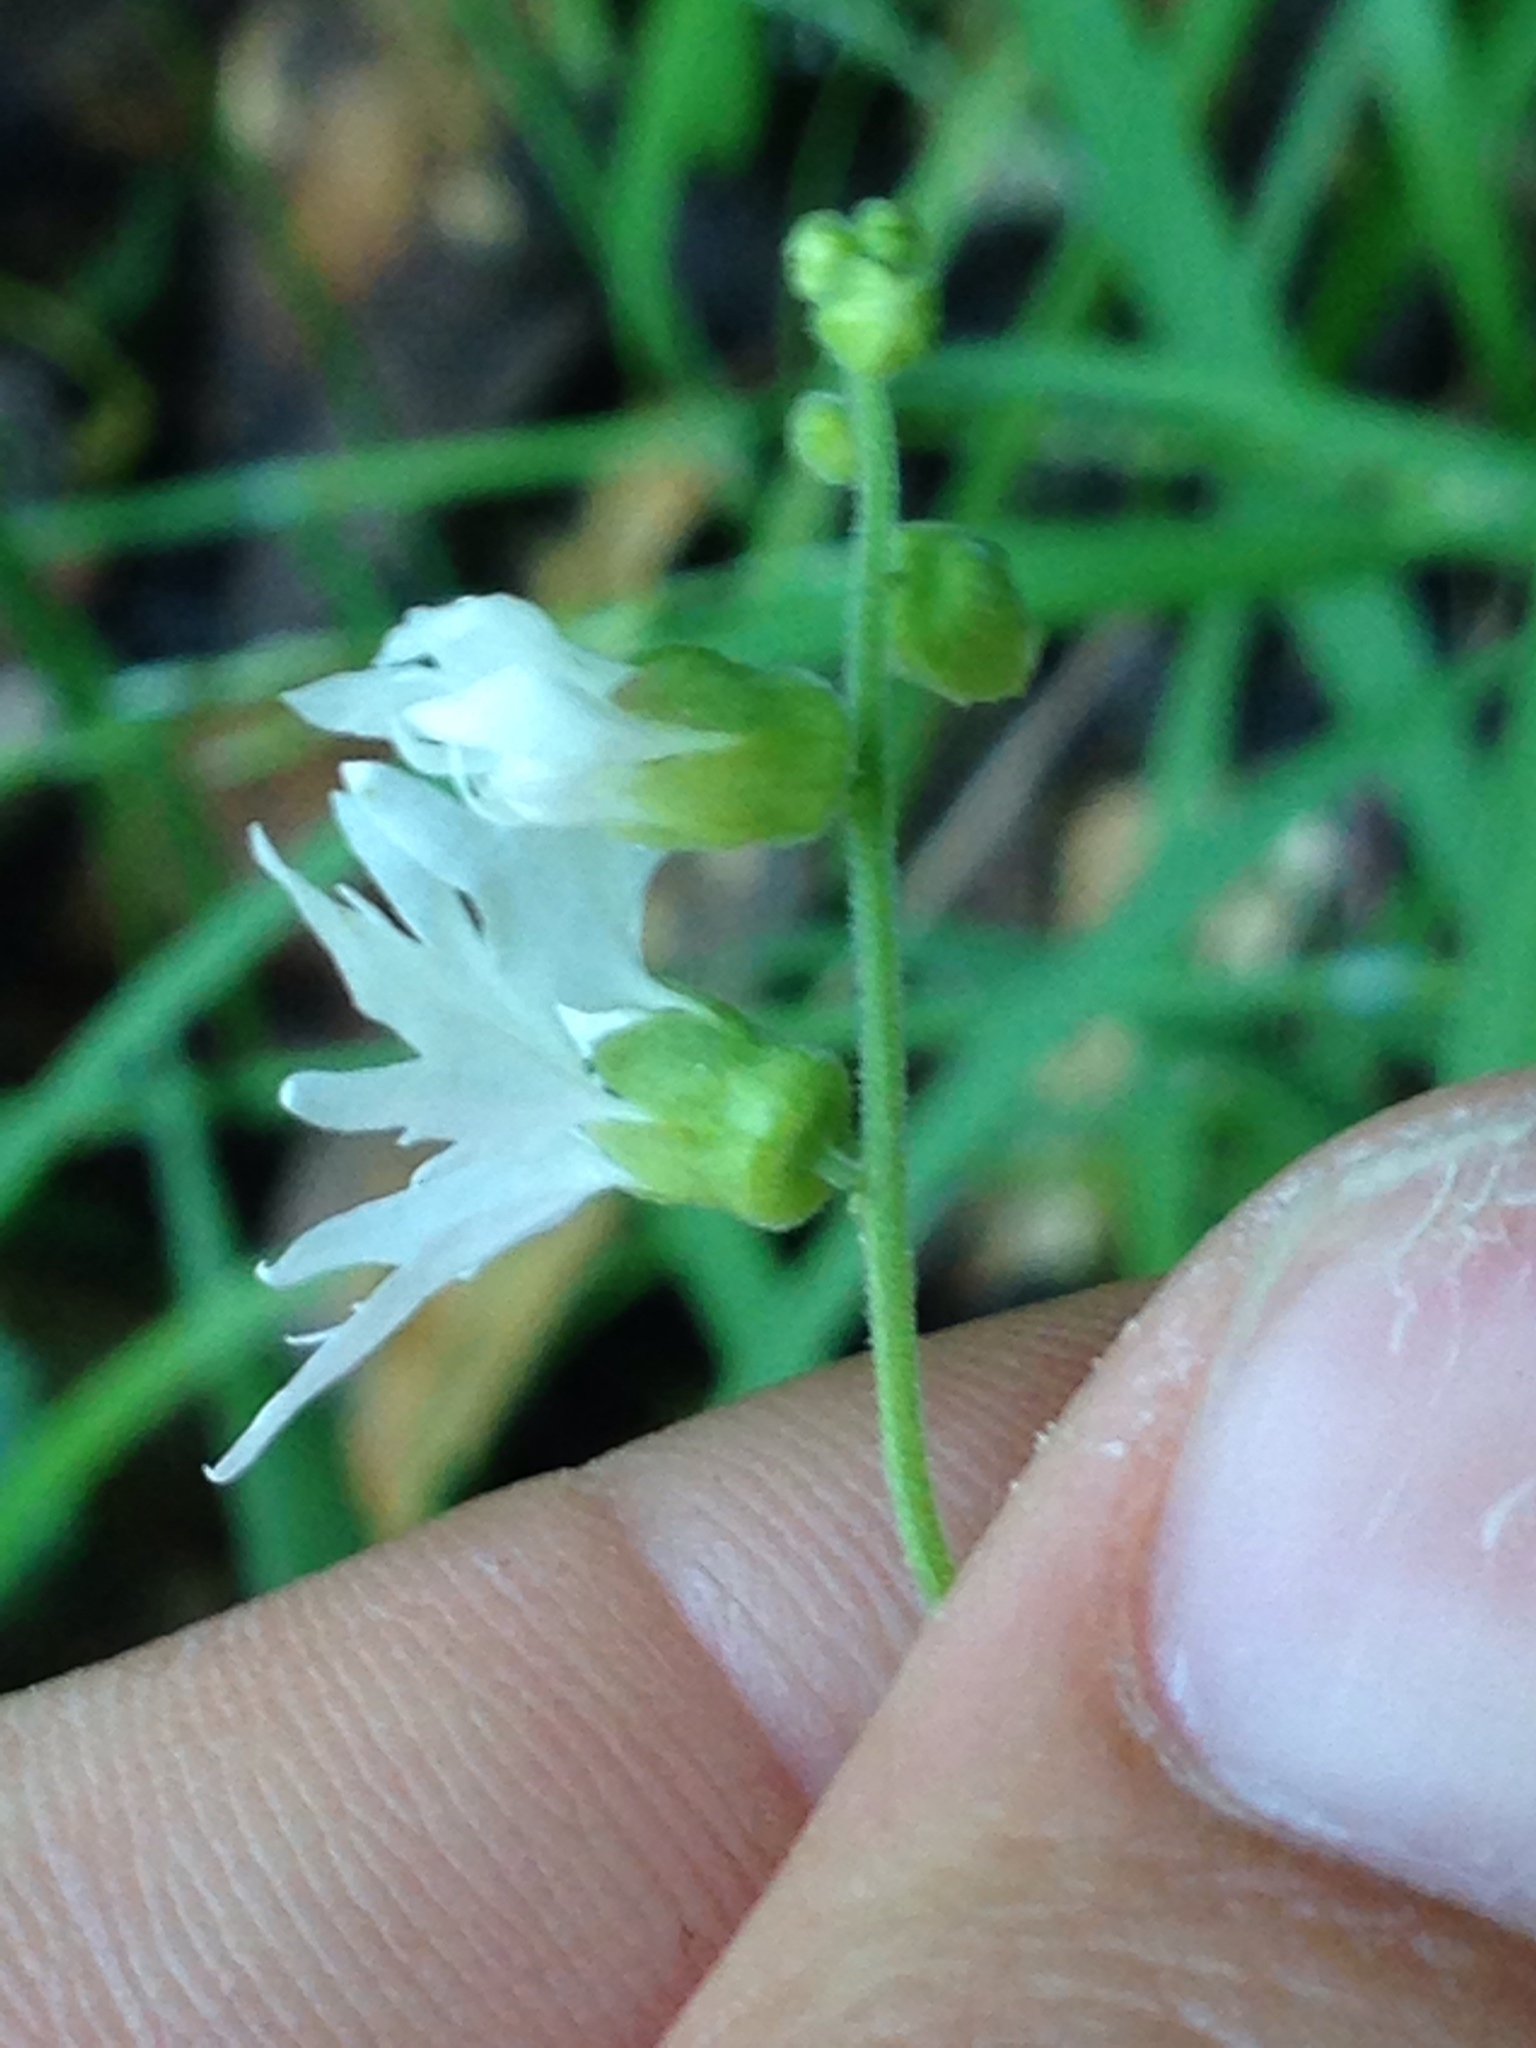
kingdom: Plantae
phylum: Tracheophyta
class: Magnoliopsida
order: Saxifragales
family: Saxifragaceae
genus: Lithophragma
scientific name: Lithophragma heterophyllum
